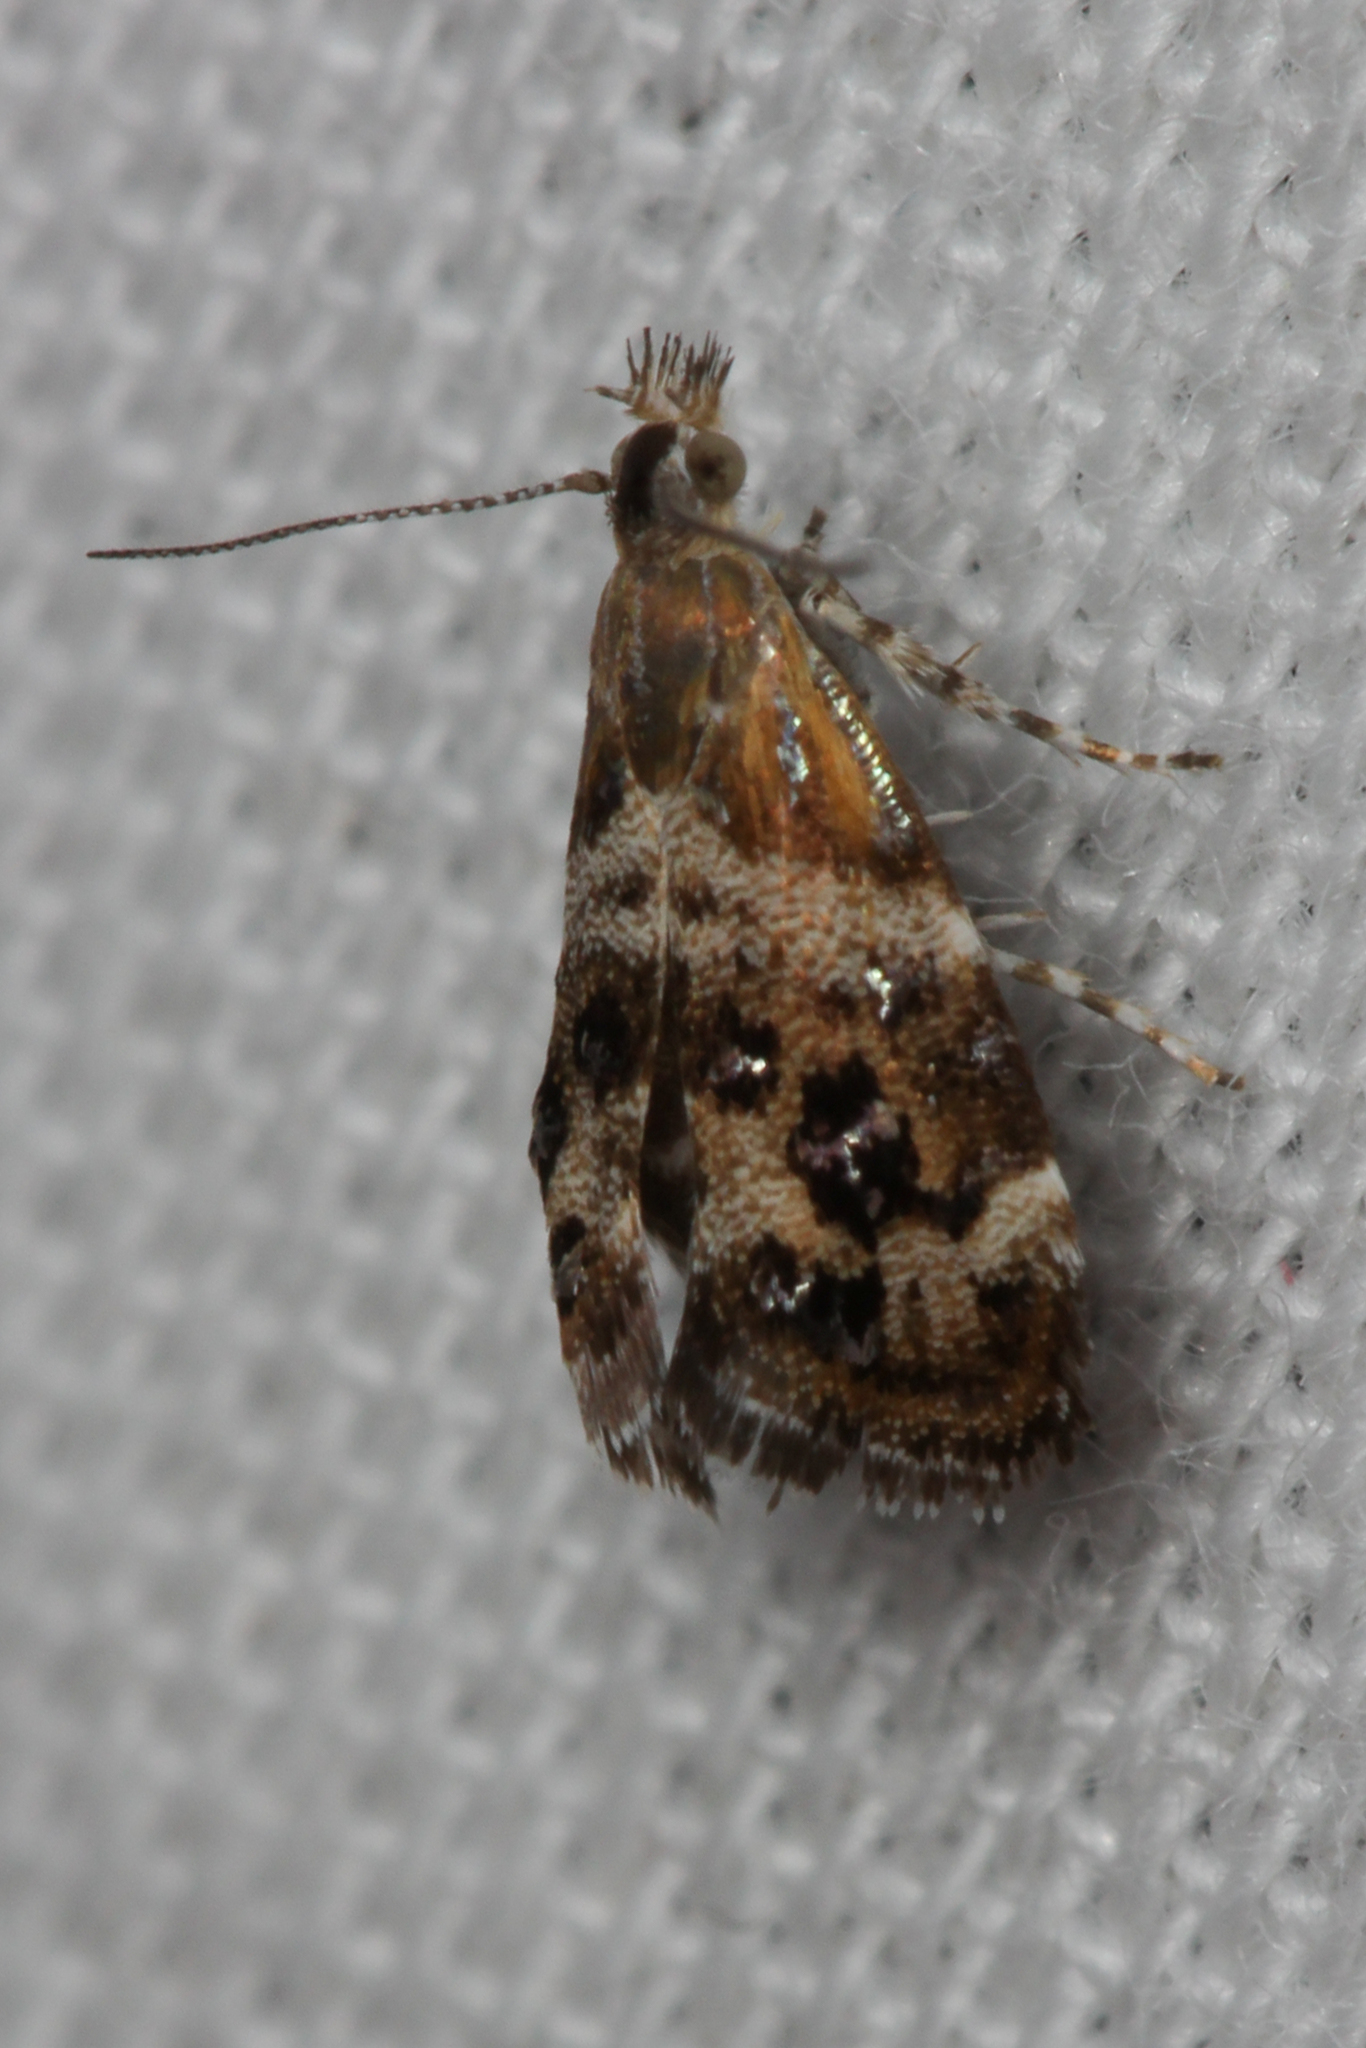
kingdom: Animalia
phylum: Arthropoda
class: Insecta
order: Lepidoptera
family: Choreutidae
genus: Tebenna
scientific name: Tebenna micalis
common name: Vagrant twitcher
